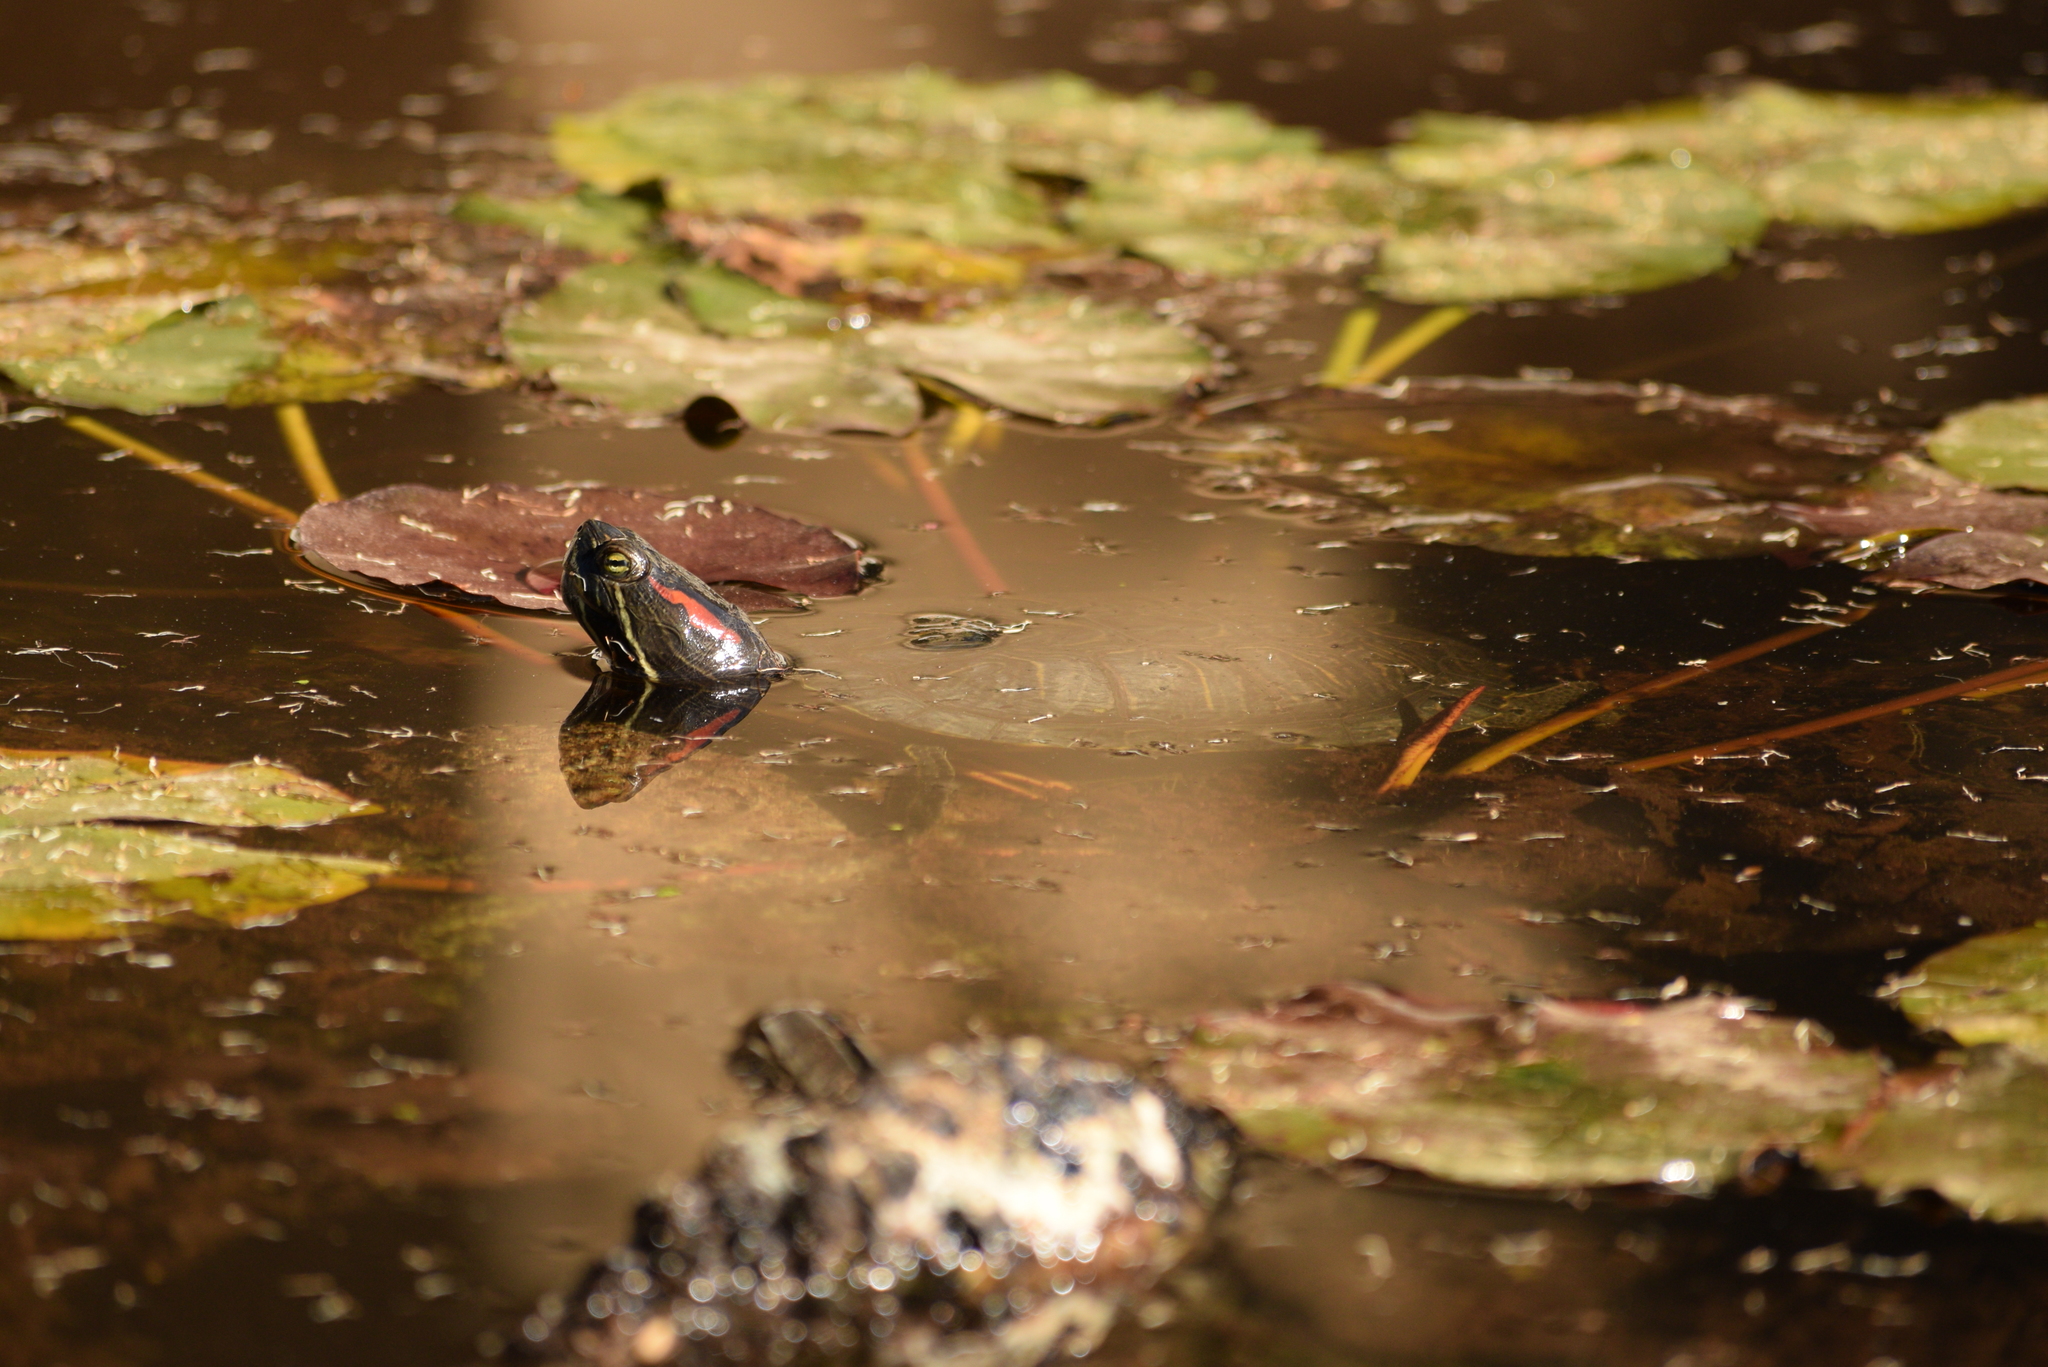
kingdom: Animalia
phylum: Chordata
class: Testudines
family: Emydidae
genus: Trachemys
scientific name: Trachemys scripta
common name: Slider
